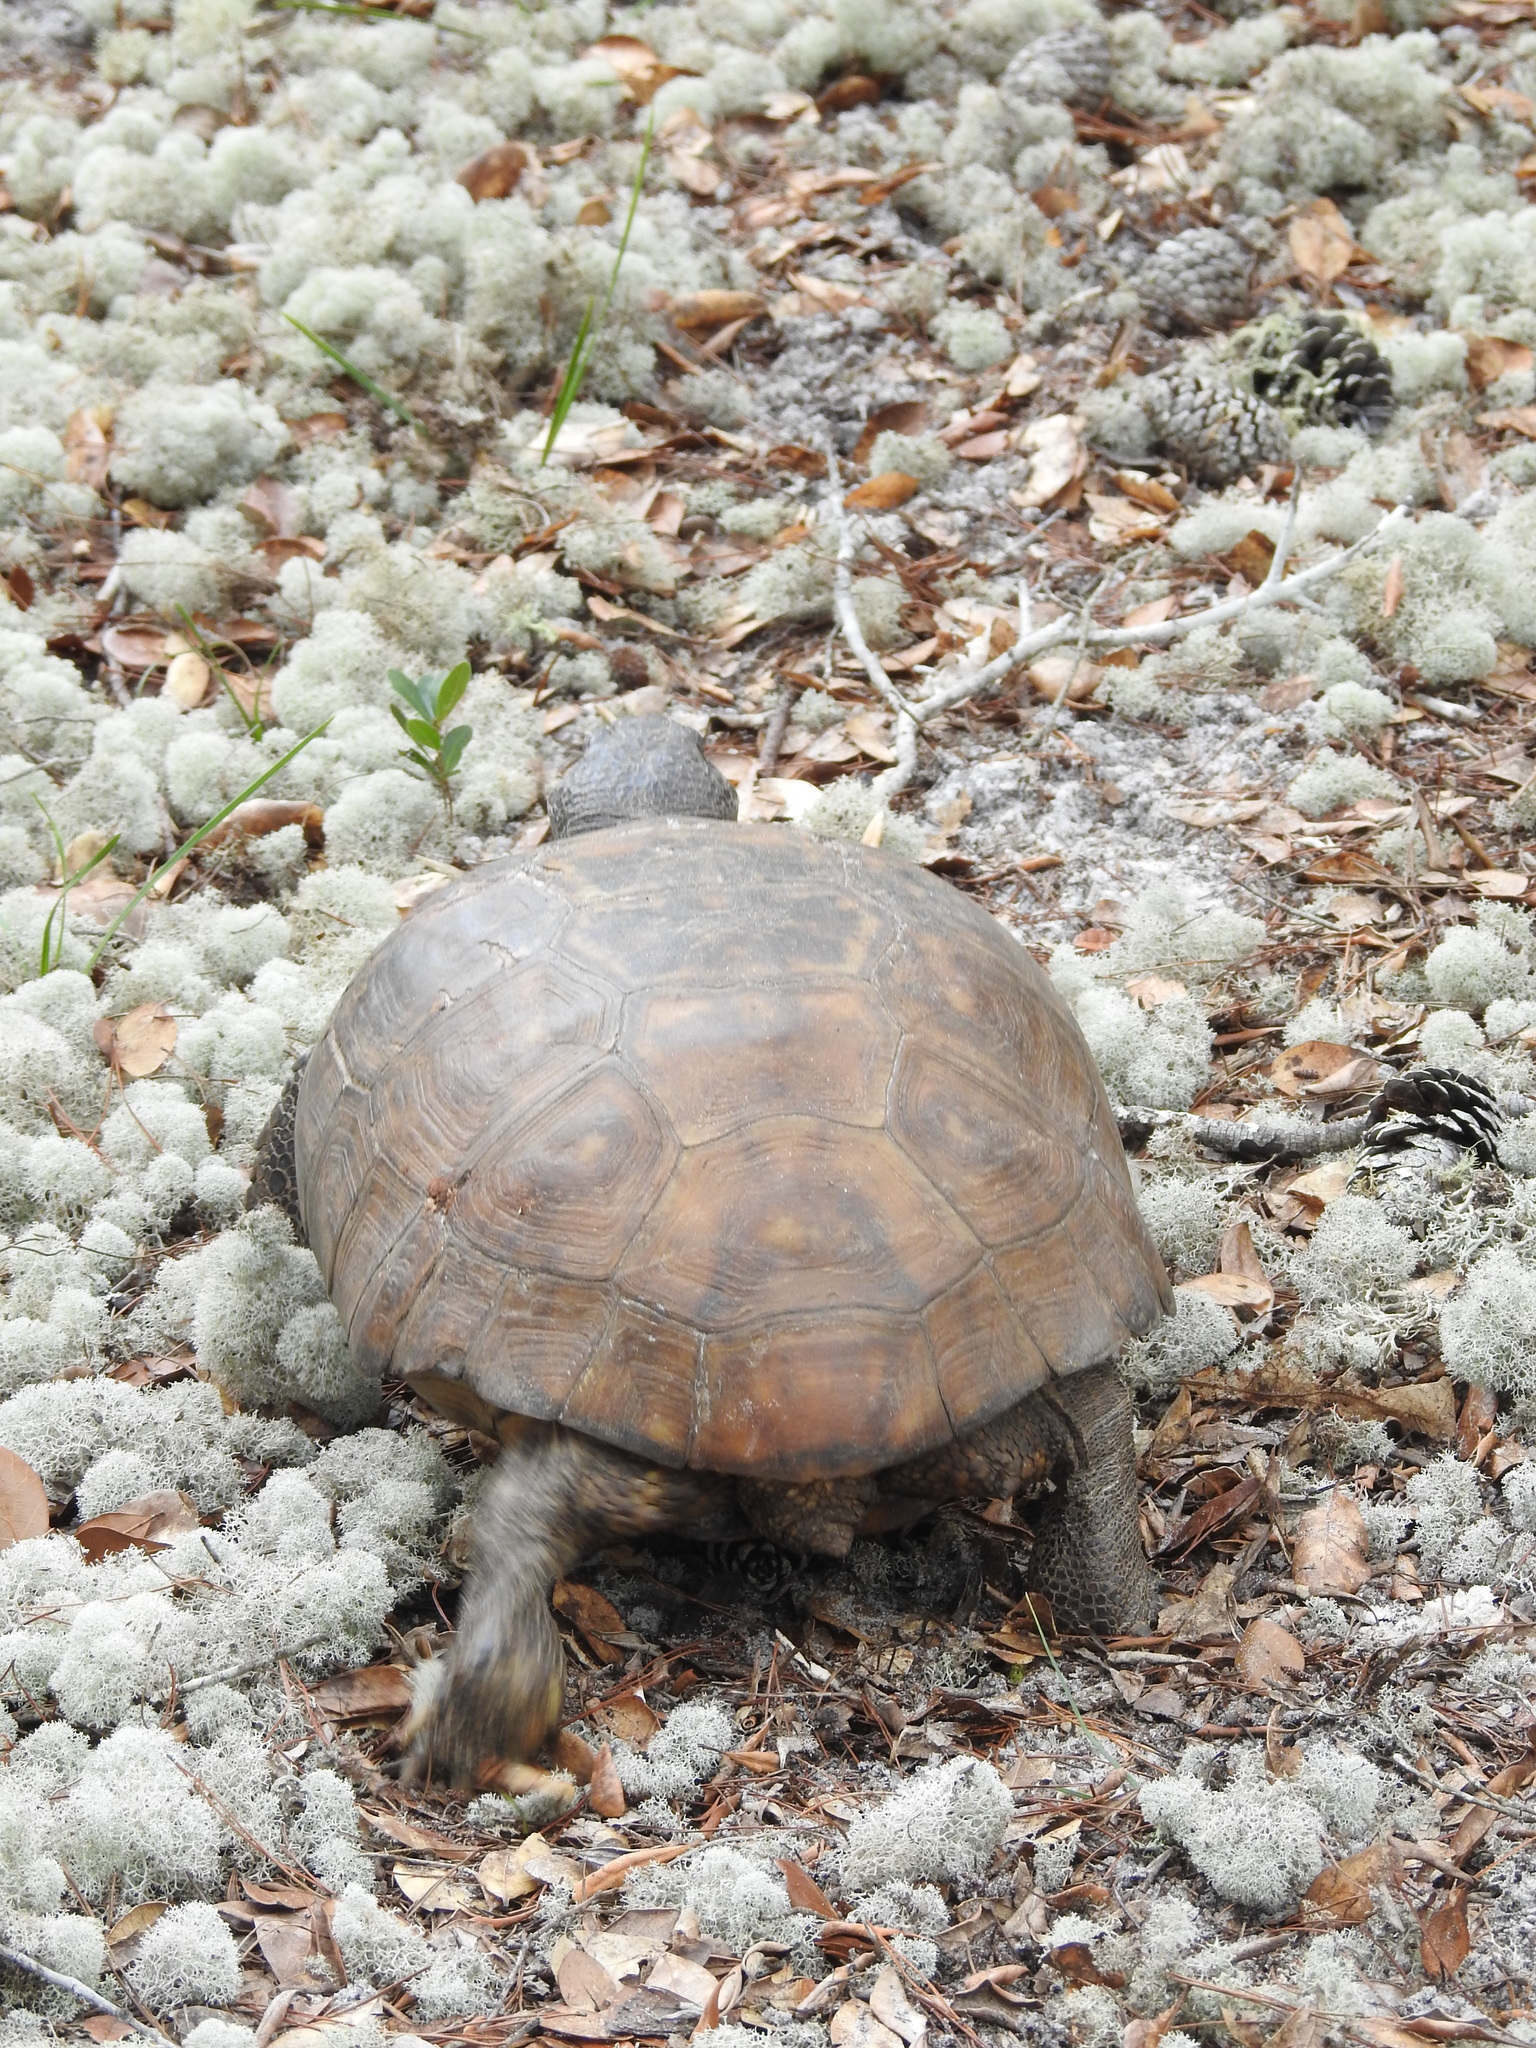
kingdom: Animalia
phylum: Chordata
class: Testudines
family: Testudinidae
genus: Gopherus
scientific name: Gopherus polyphemus
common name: Florida gopher tortoise
